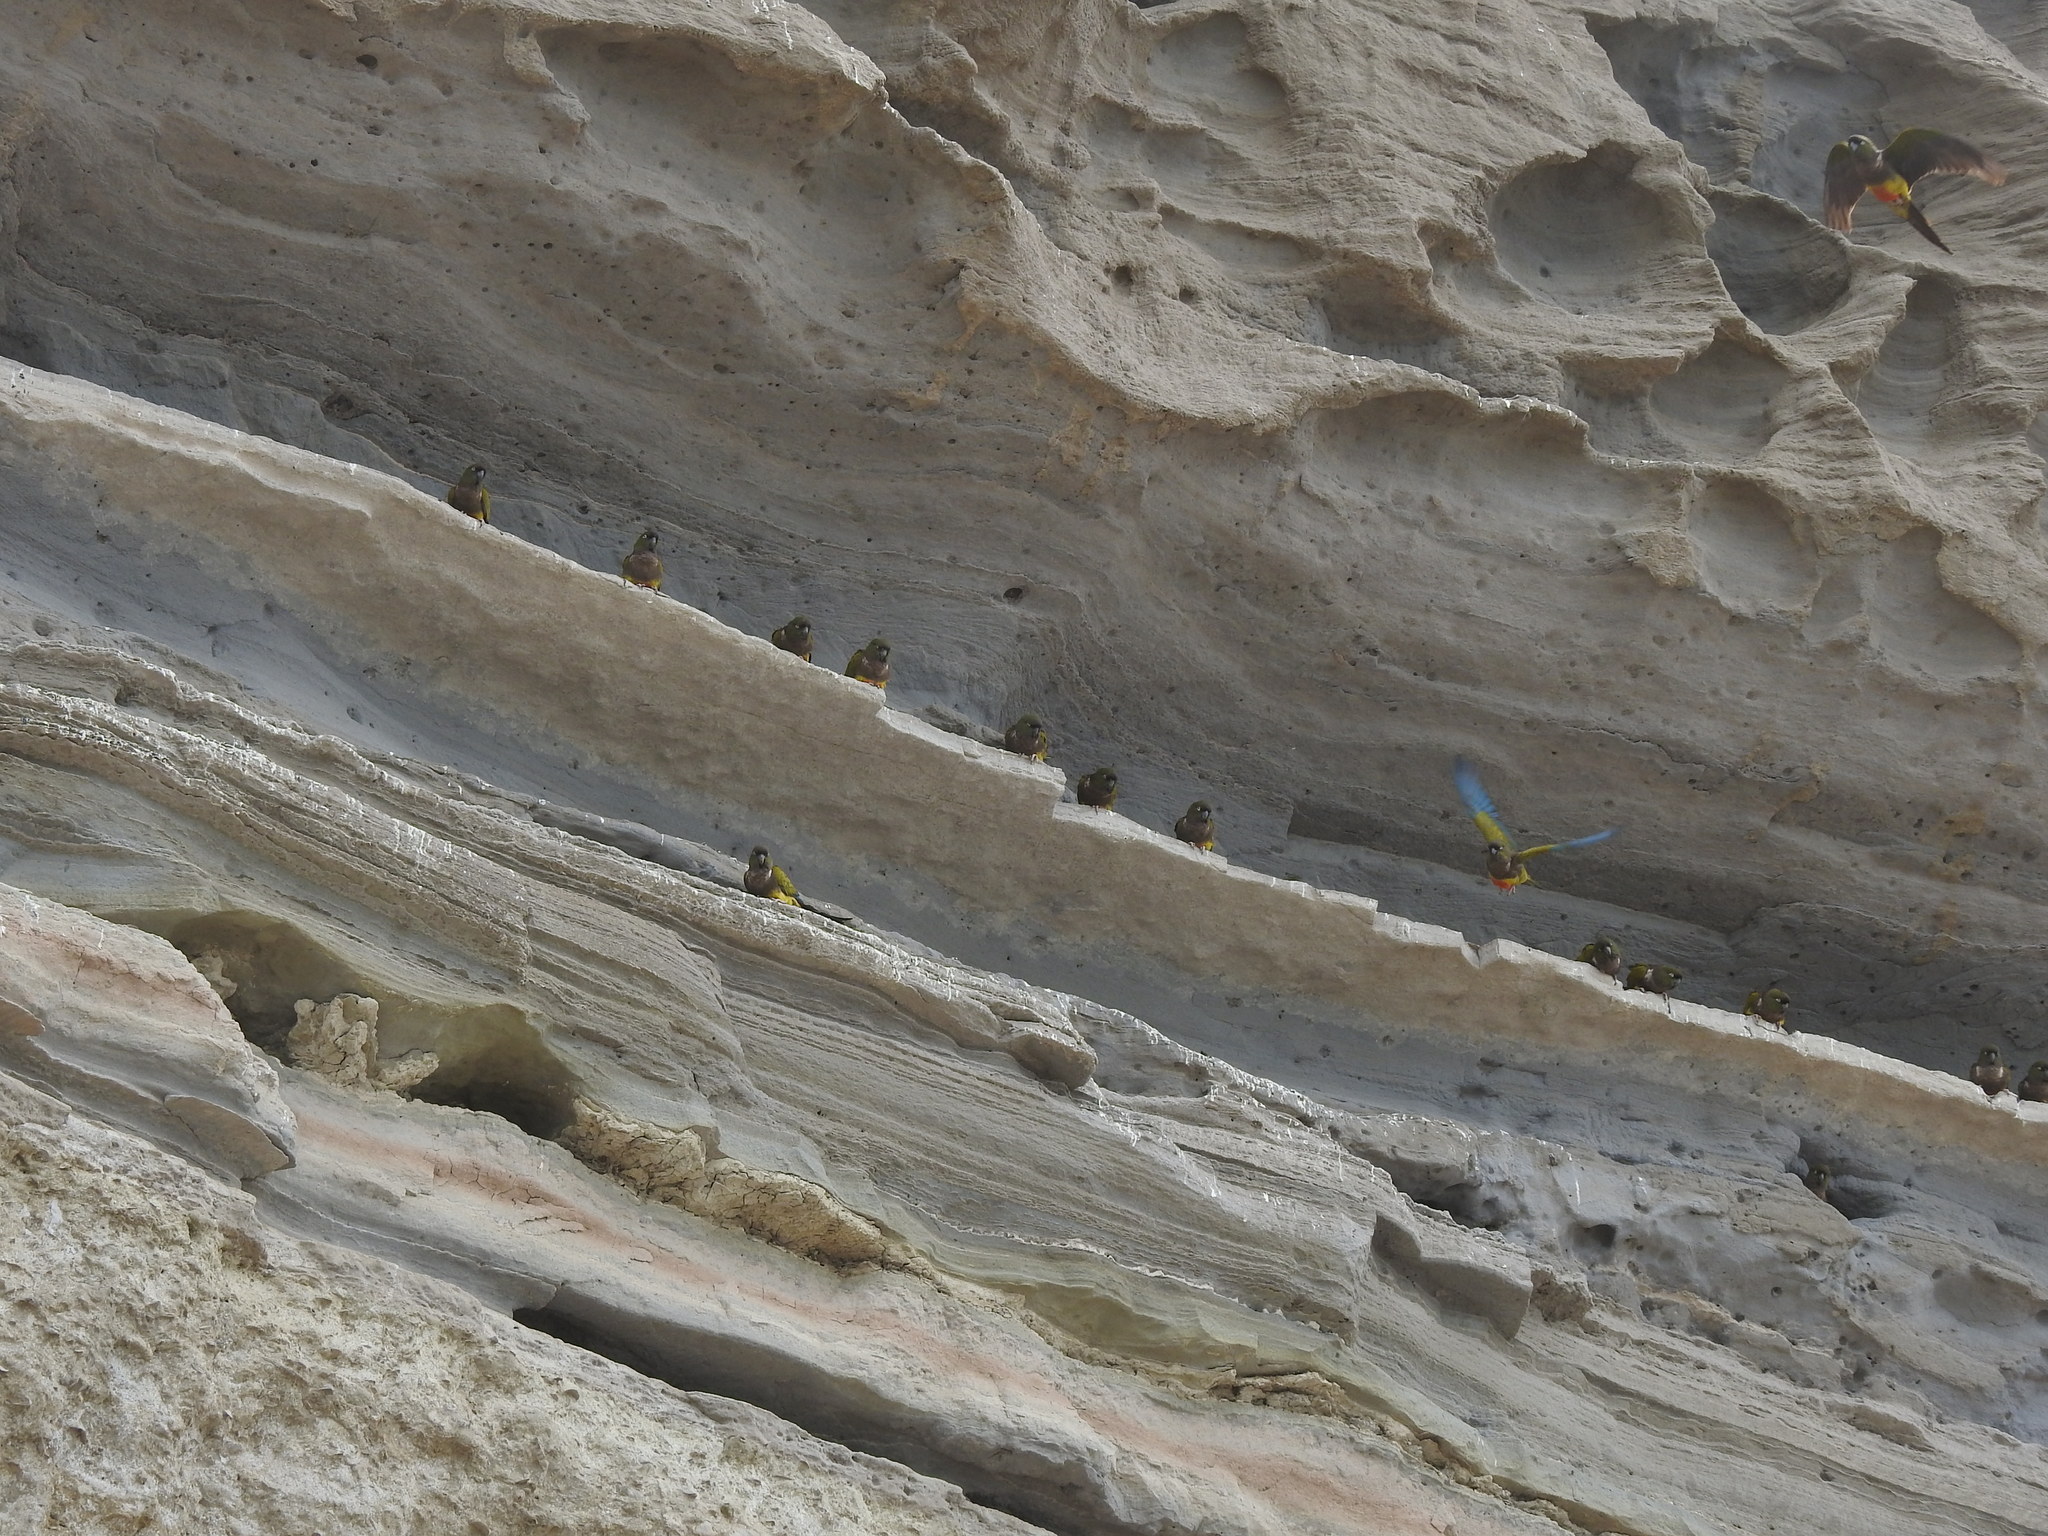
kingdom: Animalia
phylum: Chordata
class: Aves
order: Psittaciformes
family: Psittacidae
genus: Cyanoliseus
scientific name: Cyanoliseus patagonus
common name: Burrowing parrot
